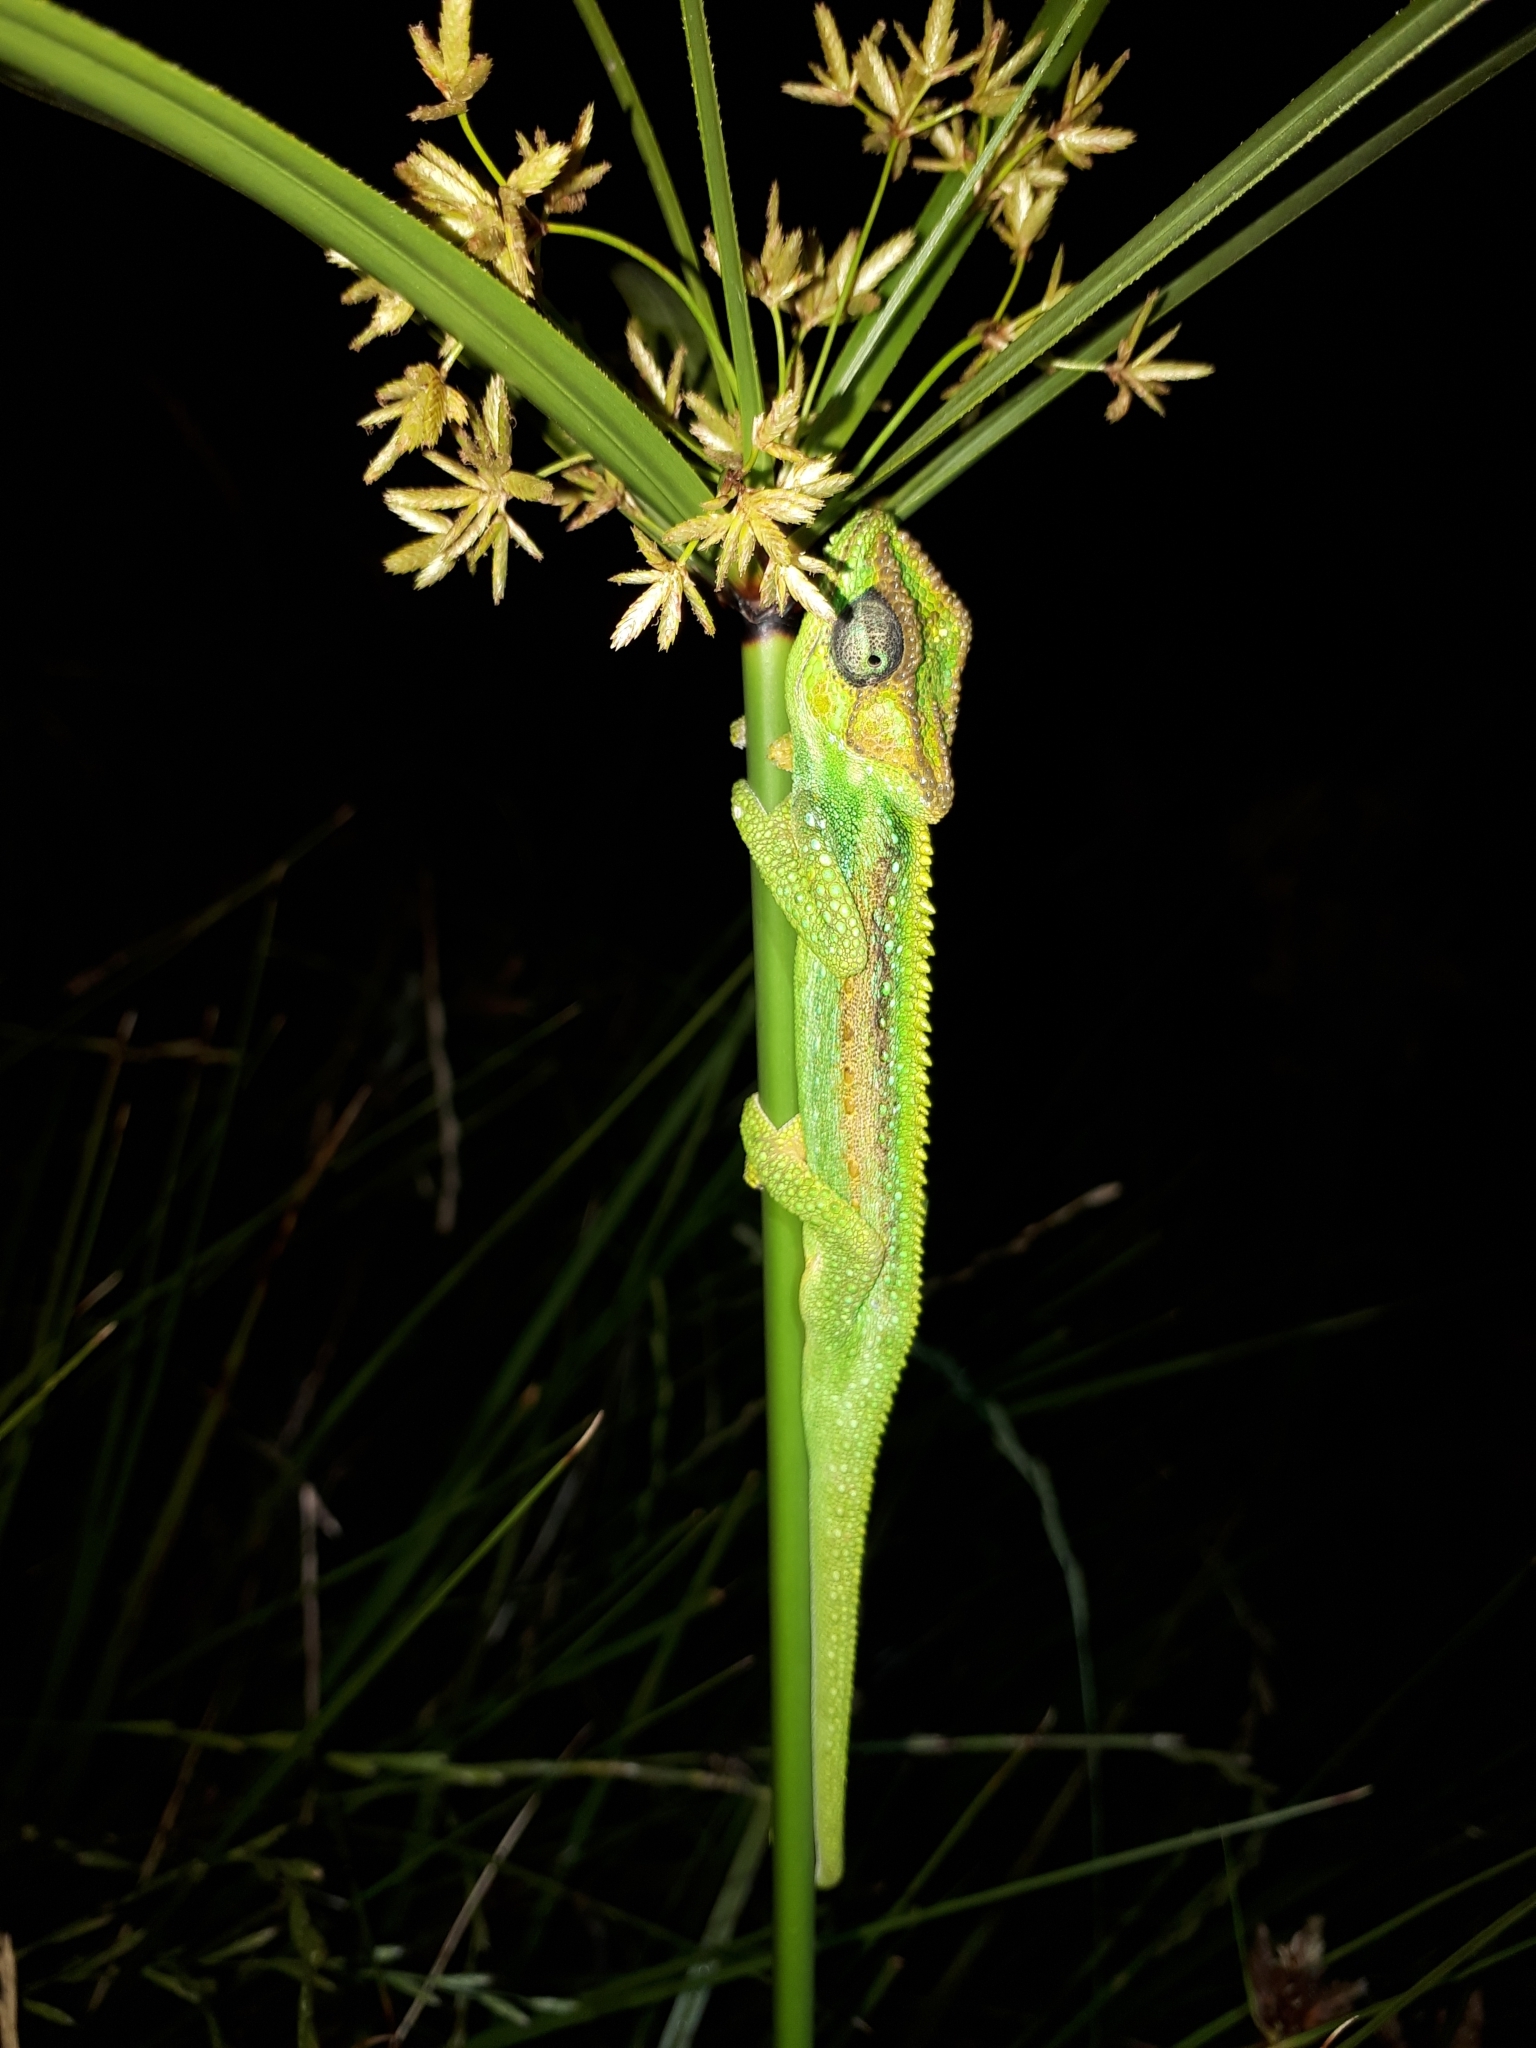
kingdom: Animalia
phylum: Chordata
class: Squamata
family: Chamaeleonidae
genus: Bradypodion
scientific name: Bradypodion pumilum
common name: Cape dwarf chameleon
